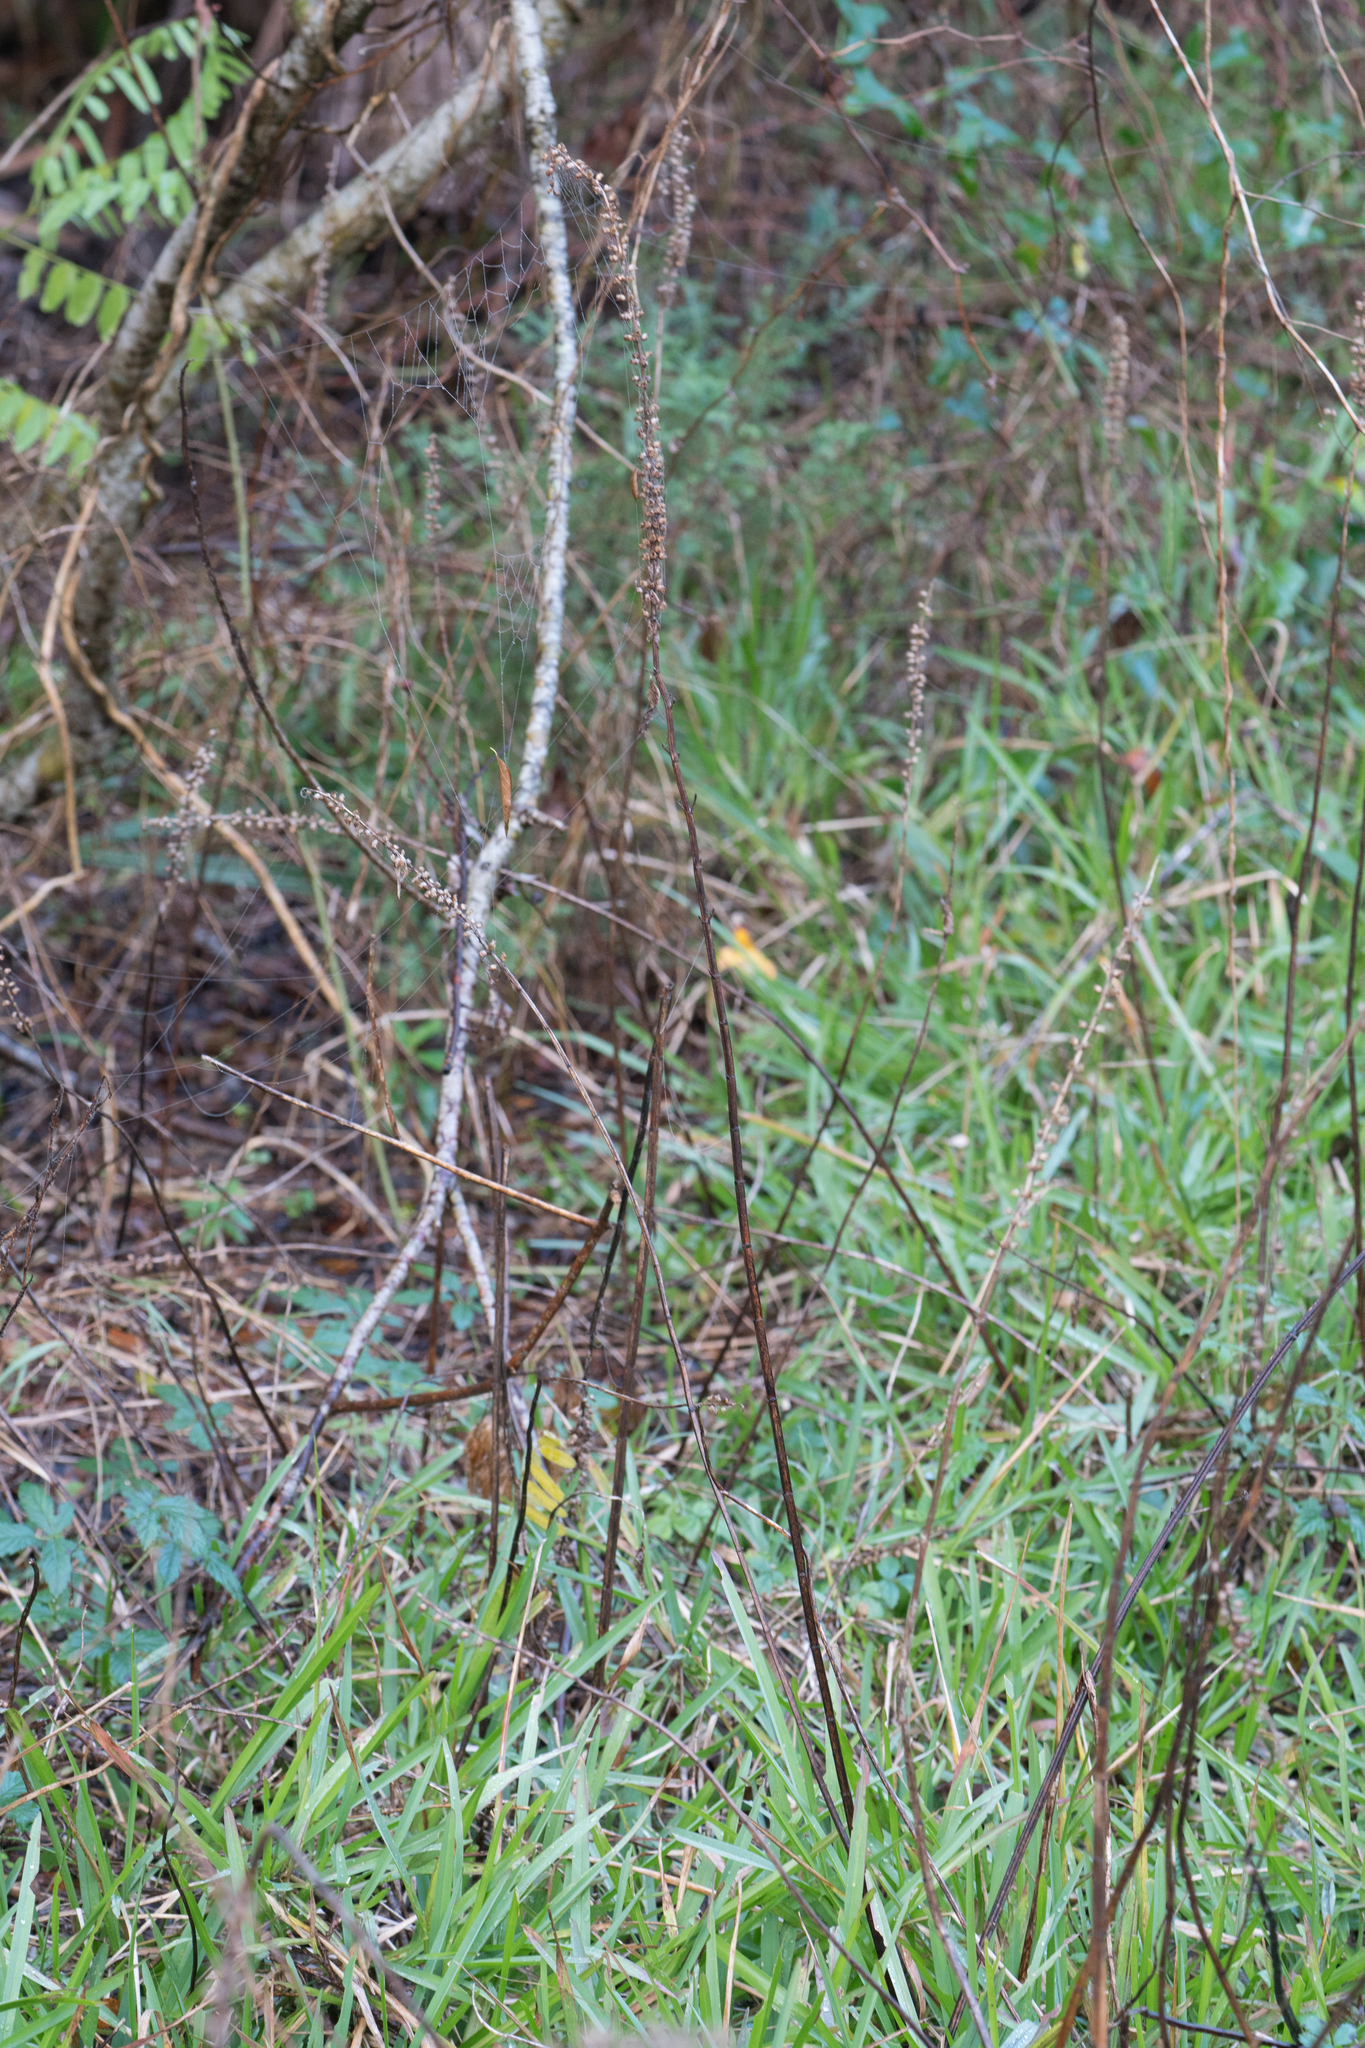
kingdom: Plantae
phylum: Tracheophyta
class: Magnoliopsida
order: Lamiales
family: Lamiaceae
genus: Teucrium
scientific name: Teucrium canadense
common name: American germander
